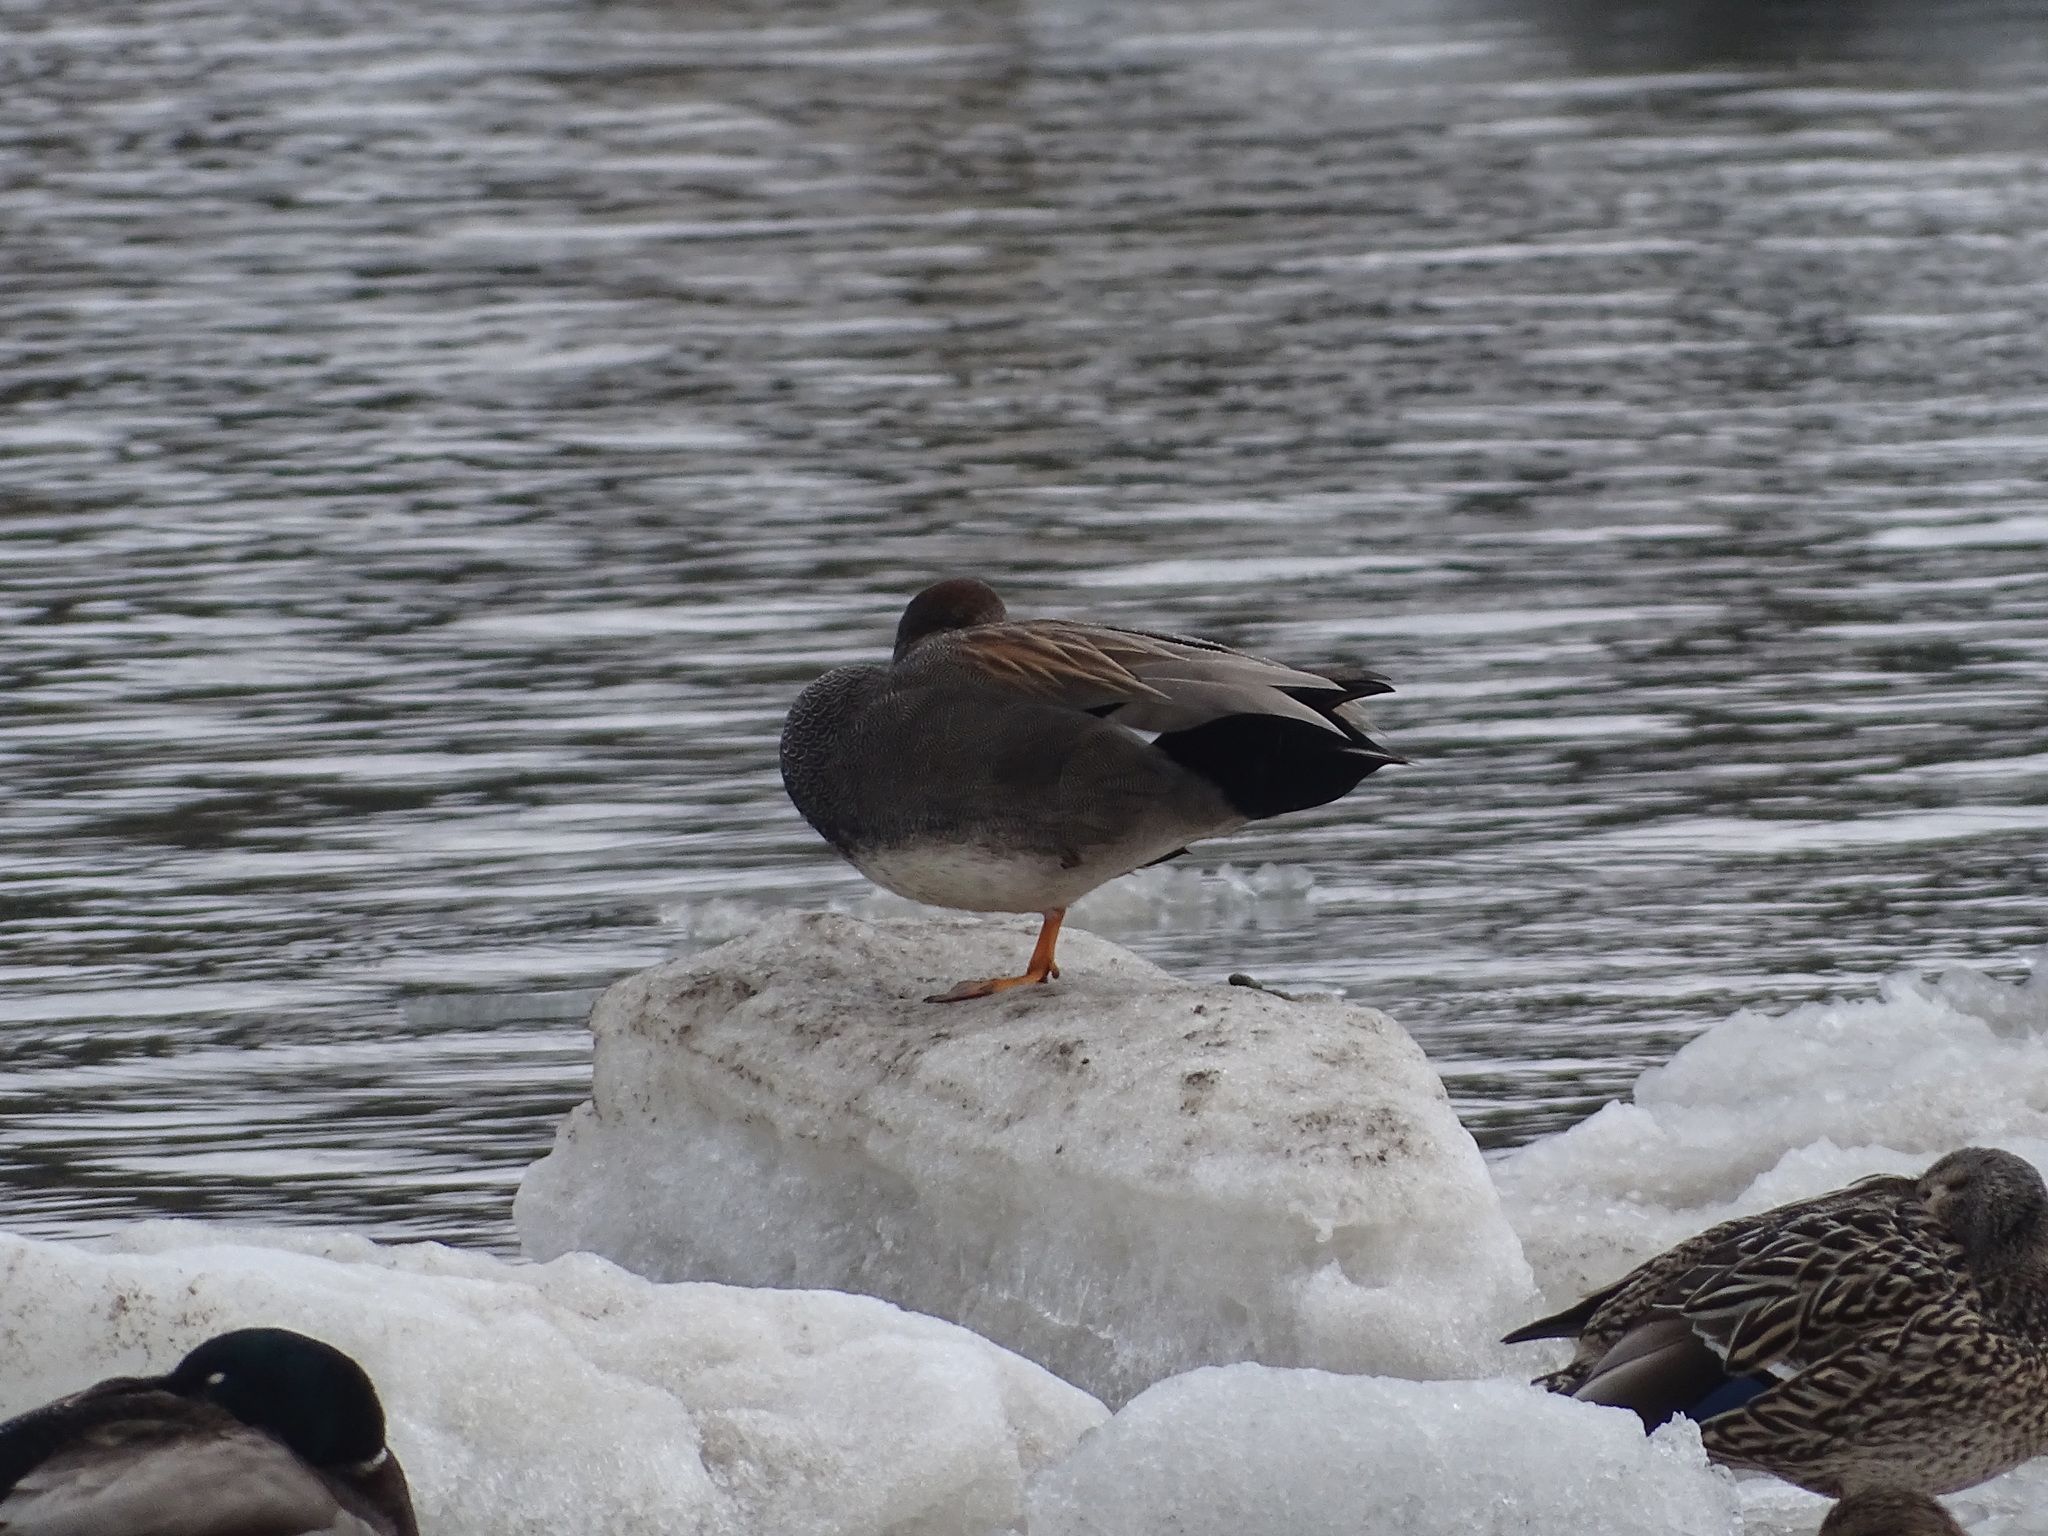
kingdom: Animalia
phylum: Chordata
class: Aves
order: Anseriformes
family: Anatidae
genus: Mareca
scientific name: Mareca strepera
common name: Gadwall
